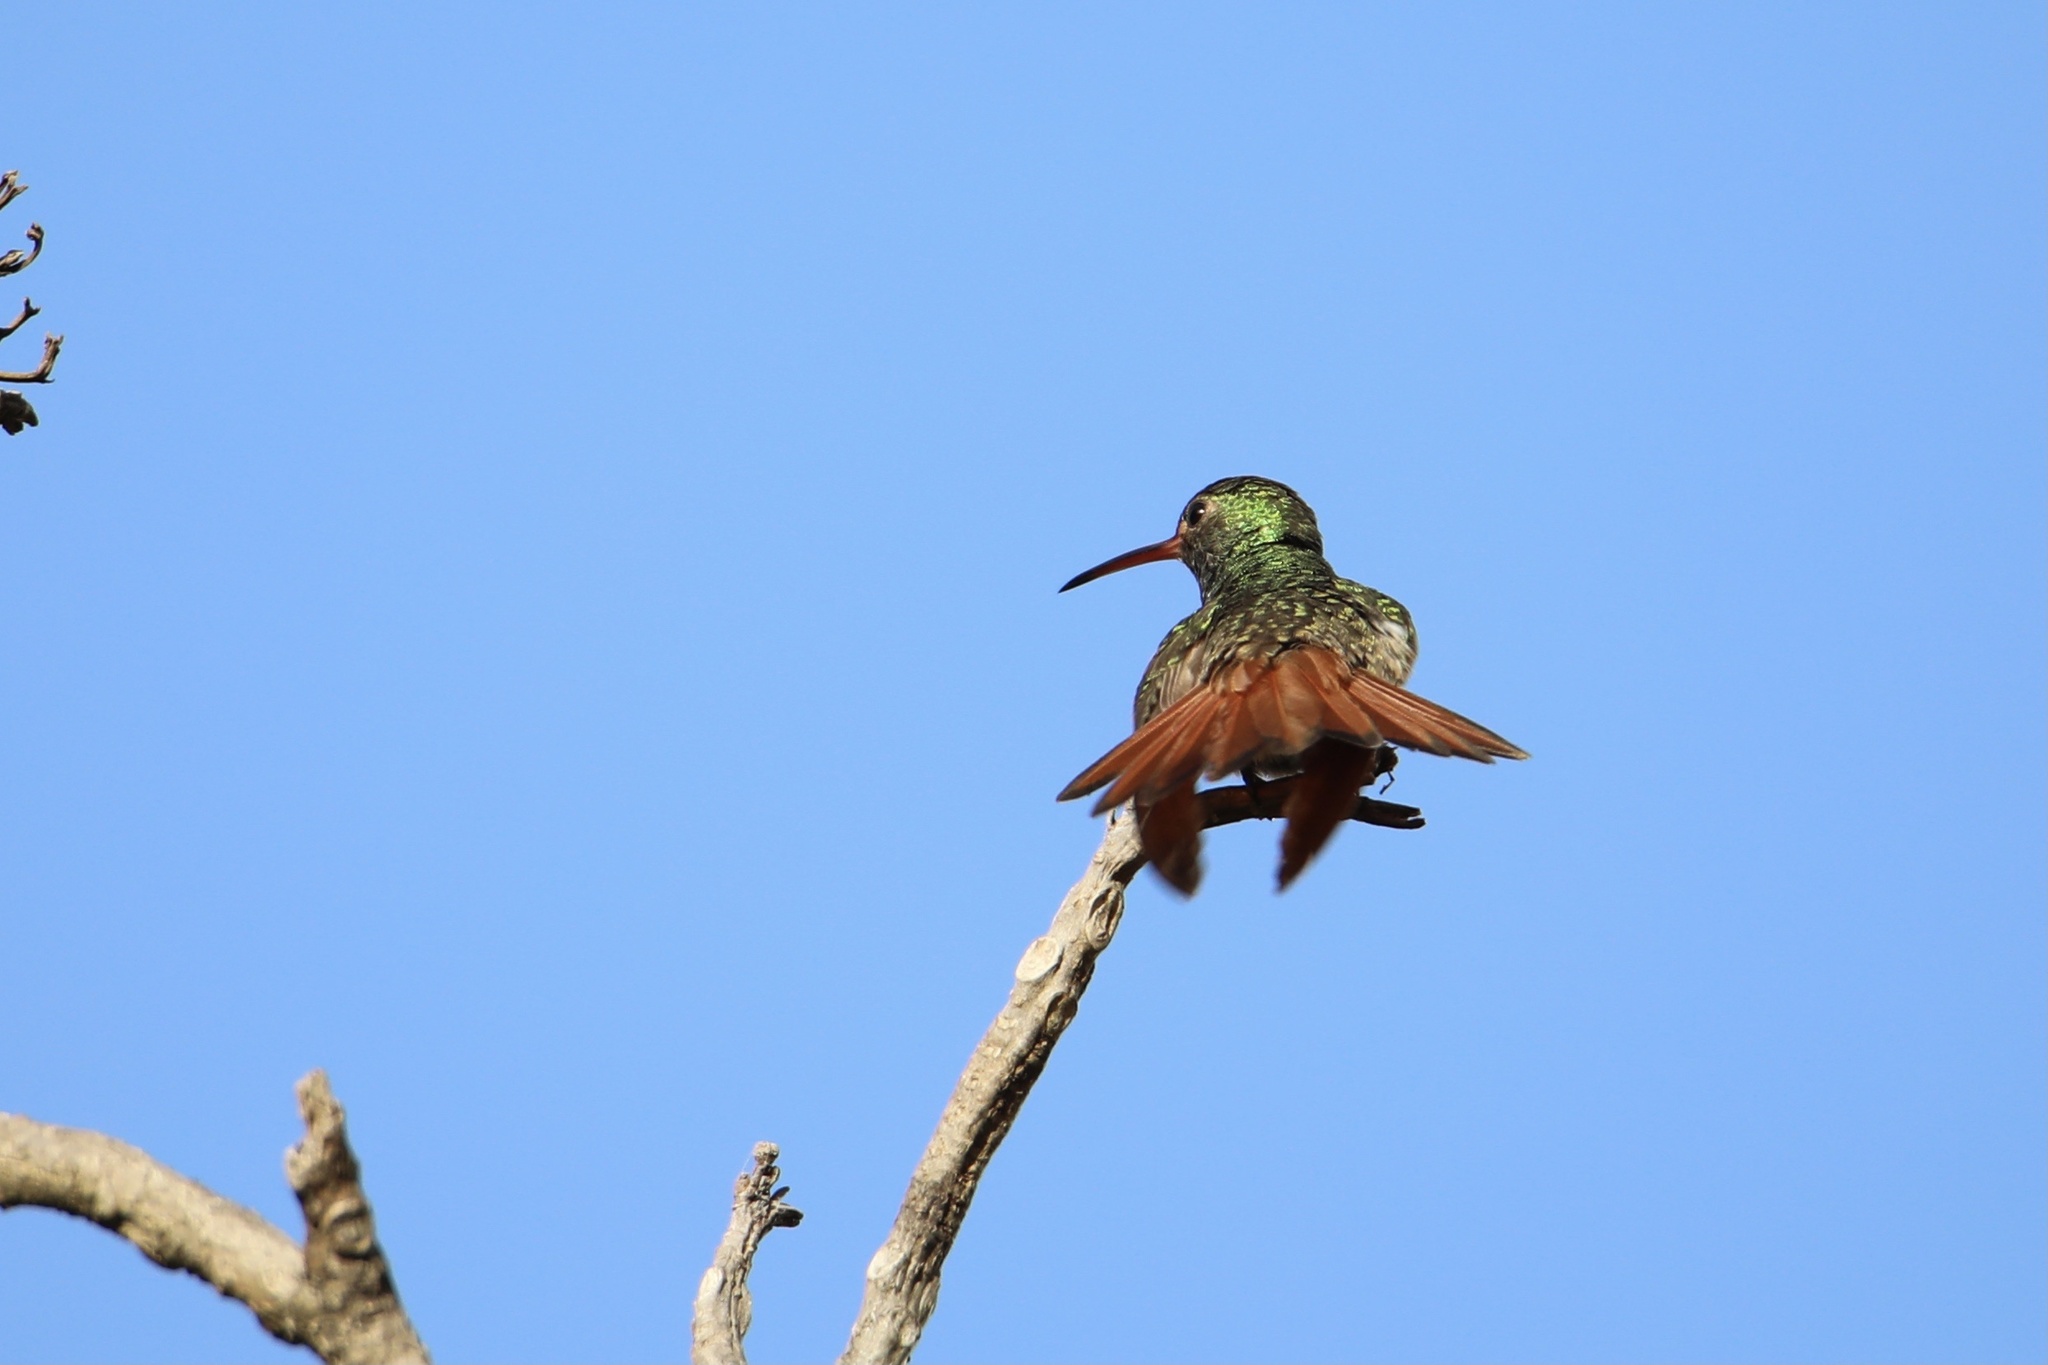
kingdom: Animalia
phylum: Chordata
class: Aves
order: Apodiformes
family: Trochilidae
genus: Amazilia
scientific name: Amazilia tzacatl
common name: Rufous-tailed hummingbird
